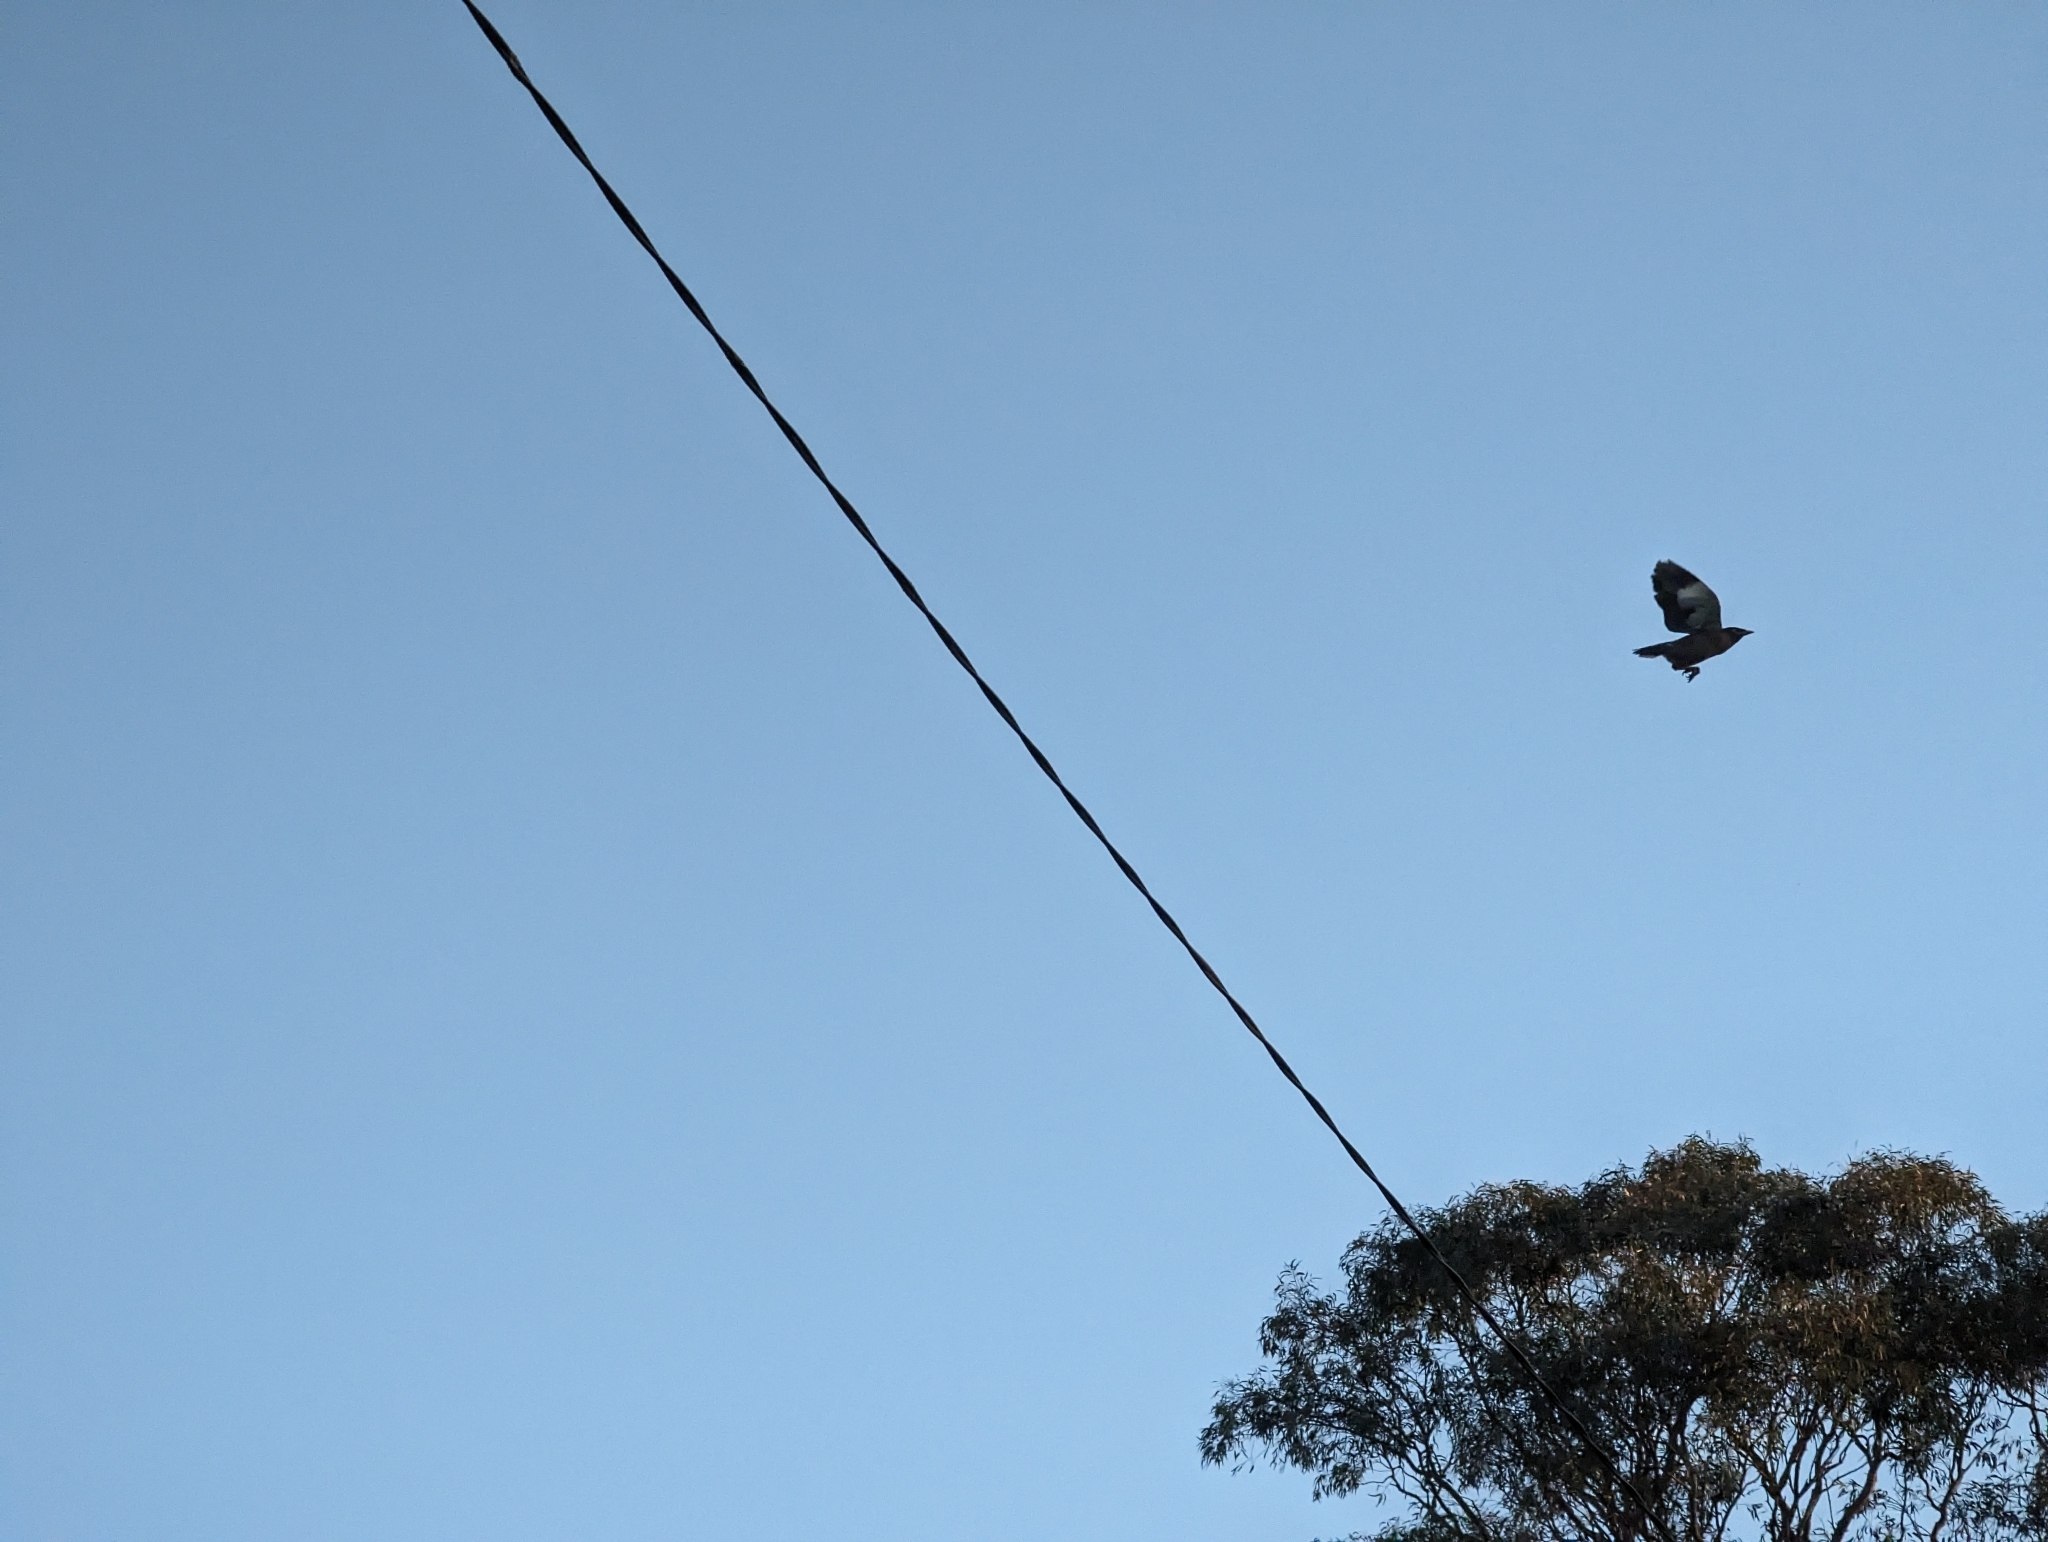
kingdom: Animalia
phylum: Chordata
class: Aves
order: Passeriformes
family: Sturnidae
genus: Acridotheres
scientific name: Acridotheres tristis
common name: Common myna
